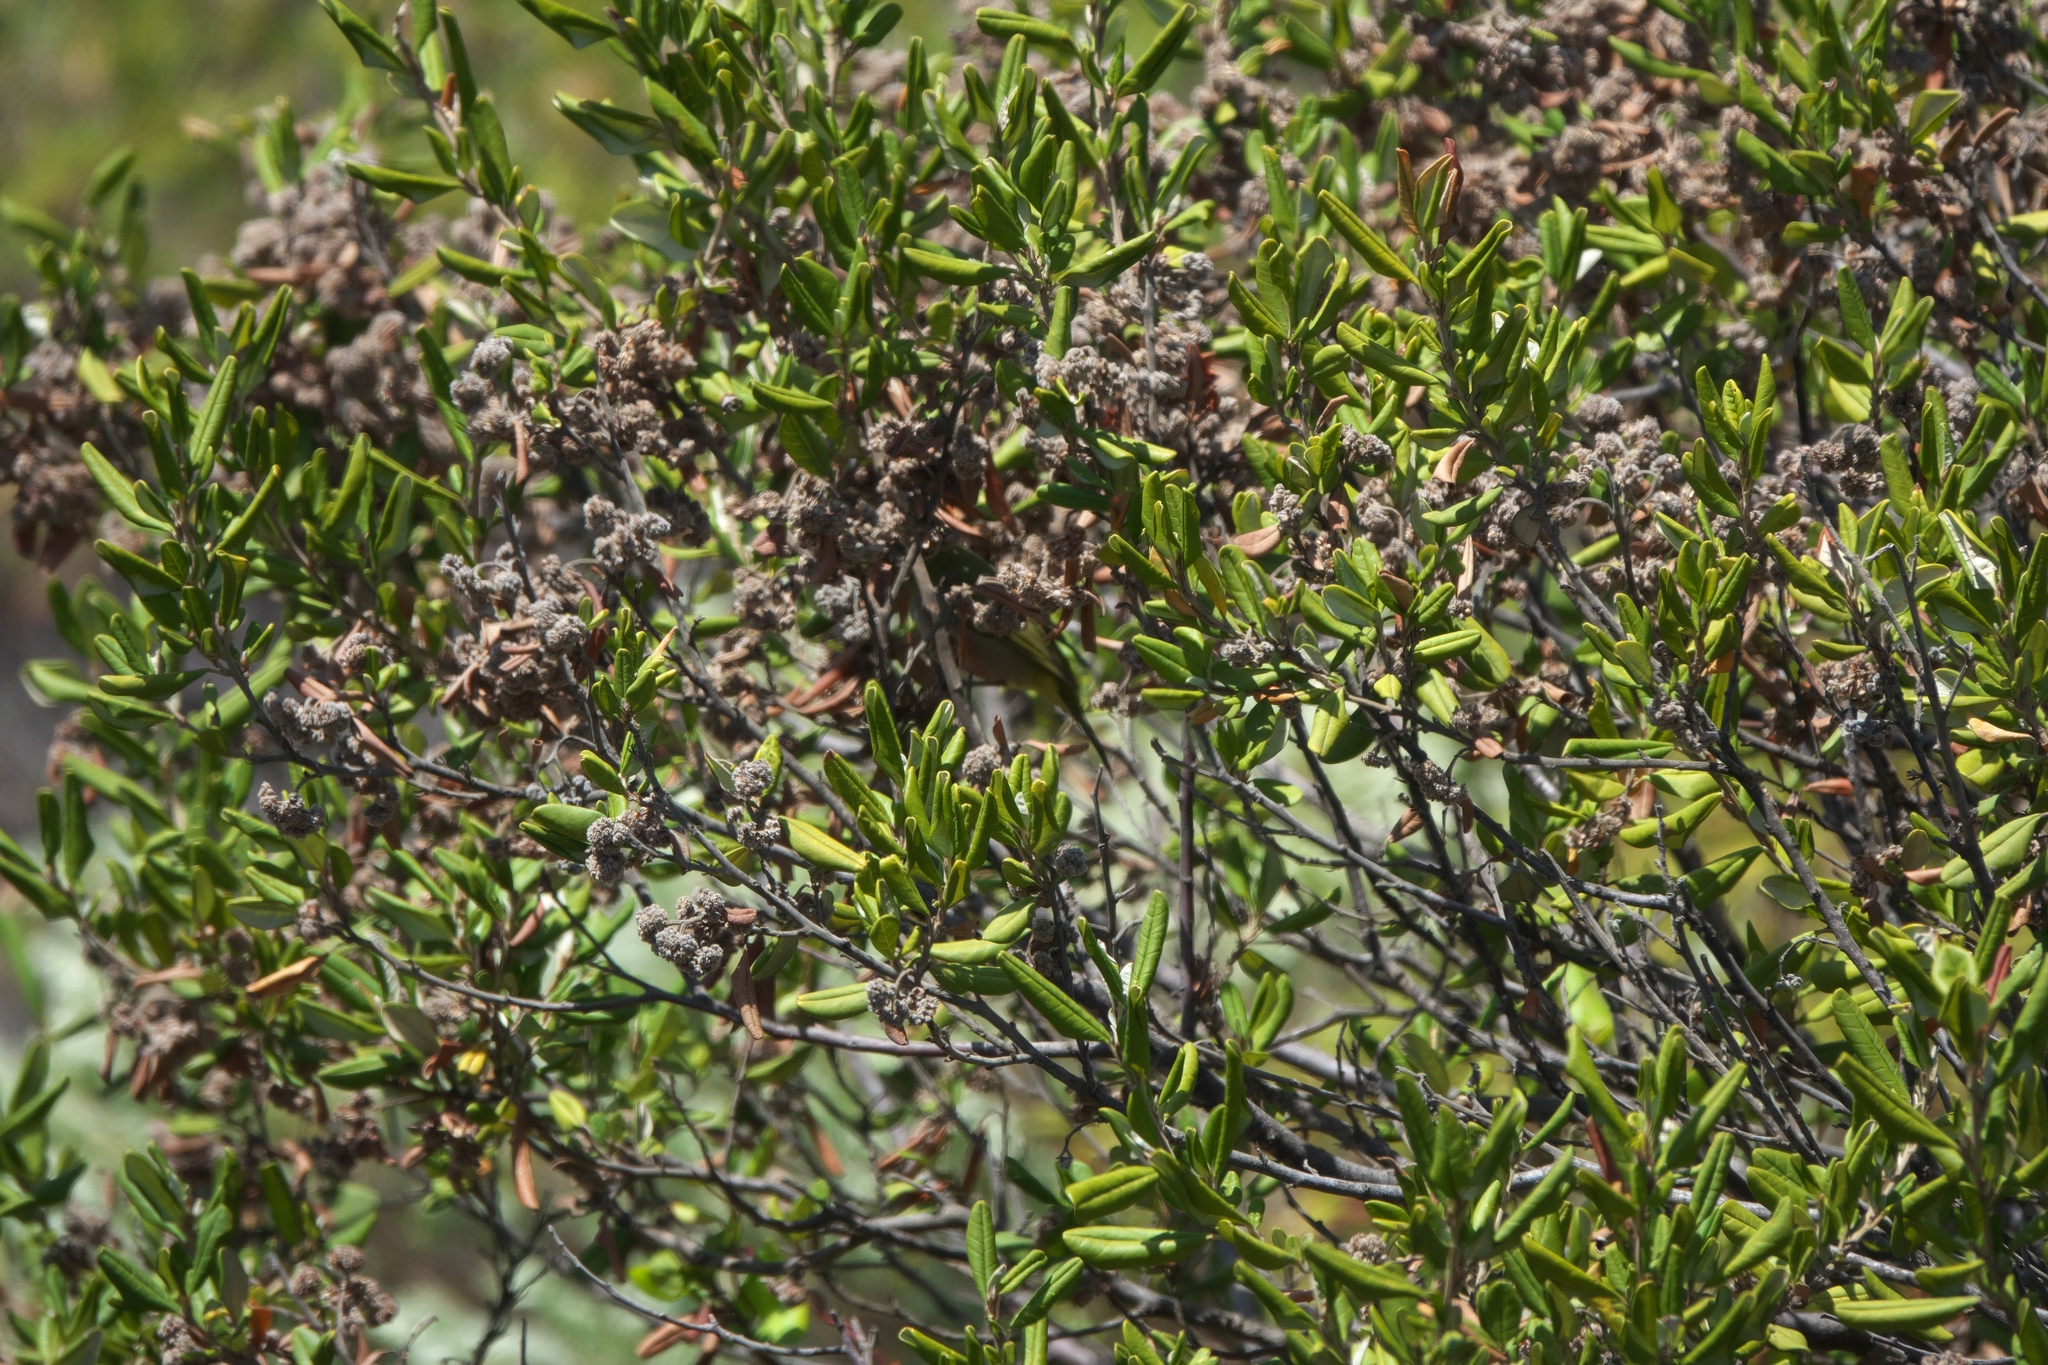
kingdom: Plantae
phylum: Tracheophyta
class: Magnoliopsida
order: Rosales
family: Rhamnaceae
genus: Spyridium
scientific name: Spyridium globulosum
